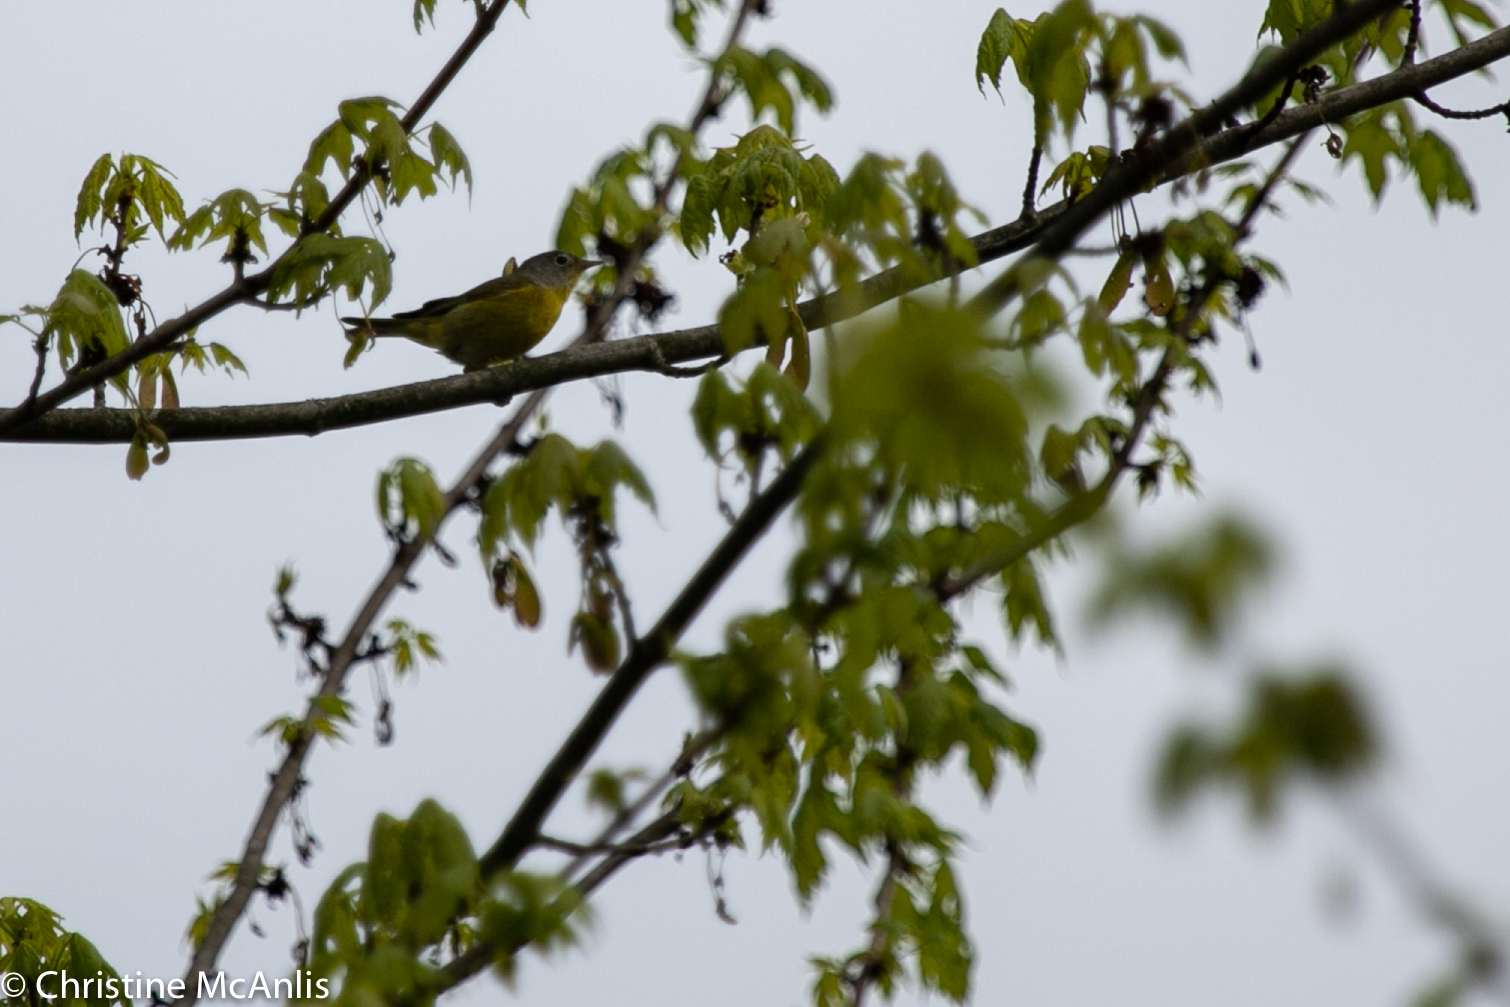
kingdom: Animalia
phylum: Chordata
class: Aves
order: Passeriformes
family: Parulidae
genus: Leiothlypis
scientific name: Leiothlypis ruficapilla
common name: Nashville warbler
